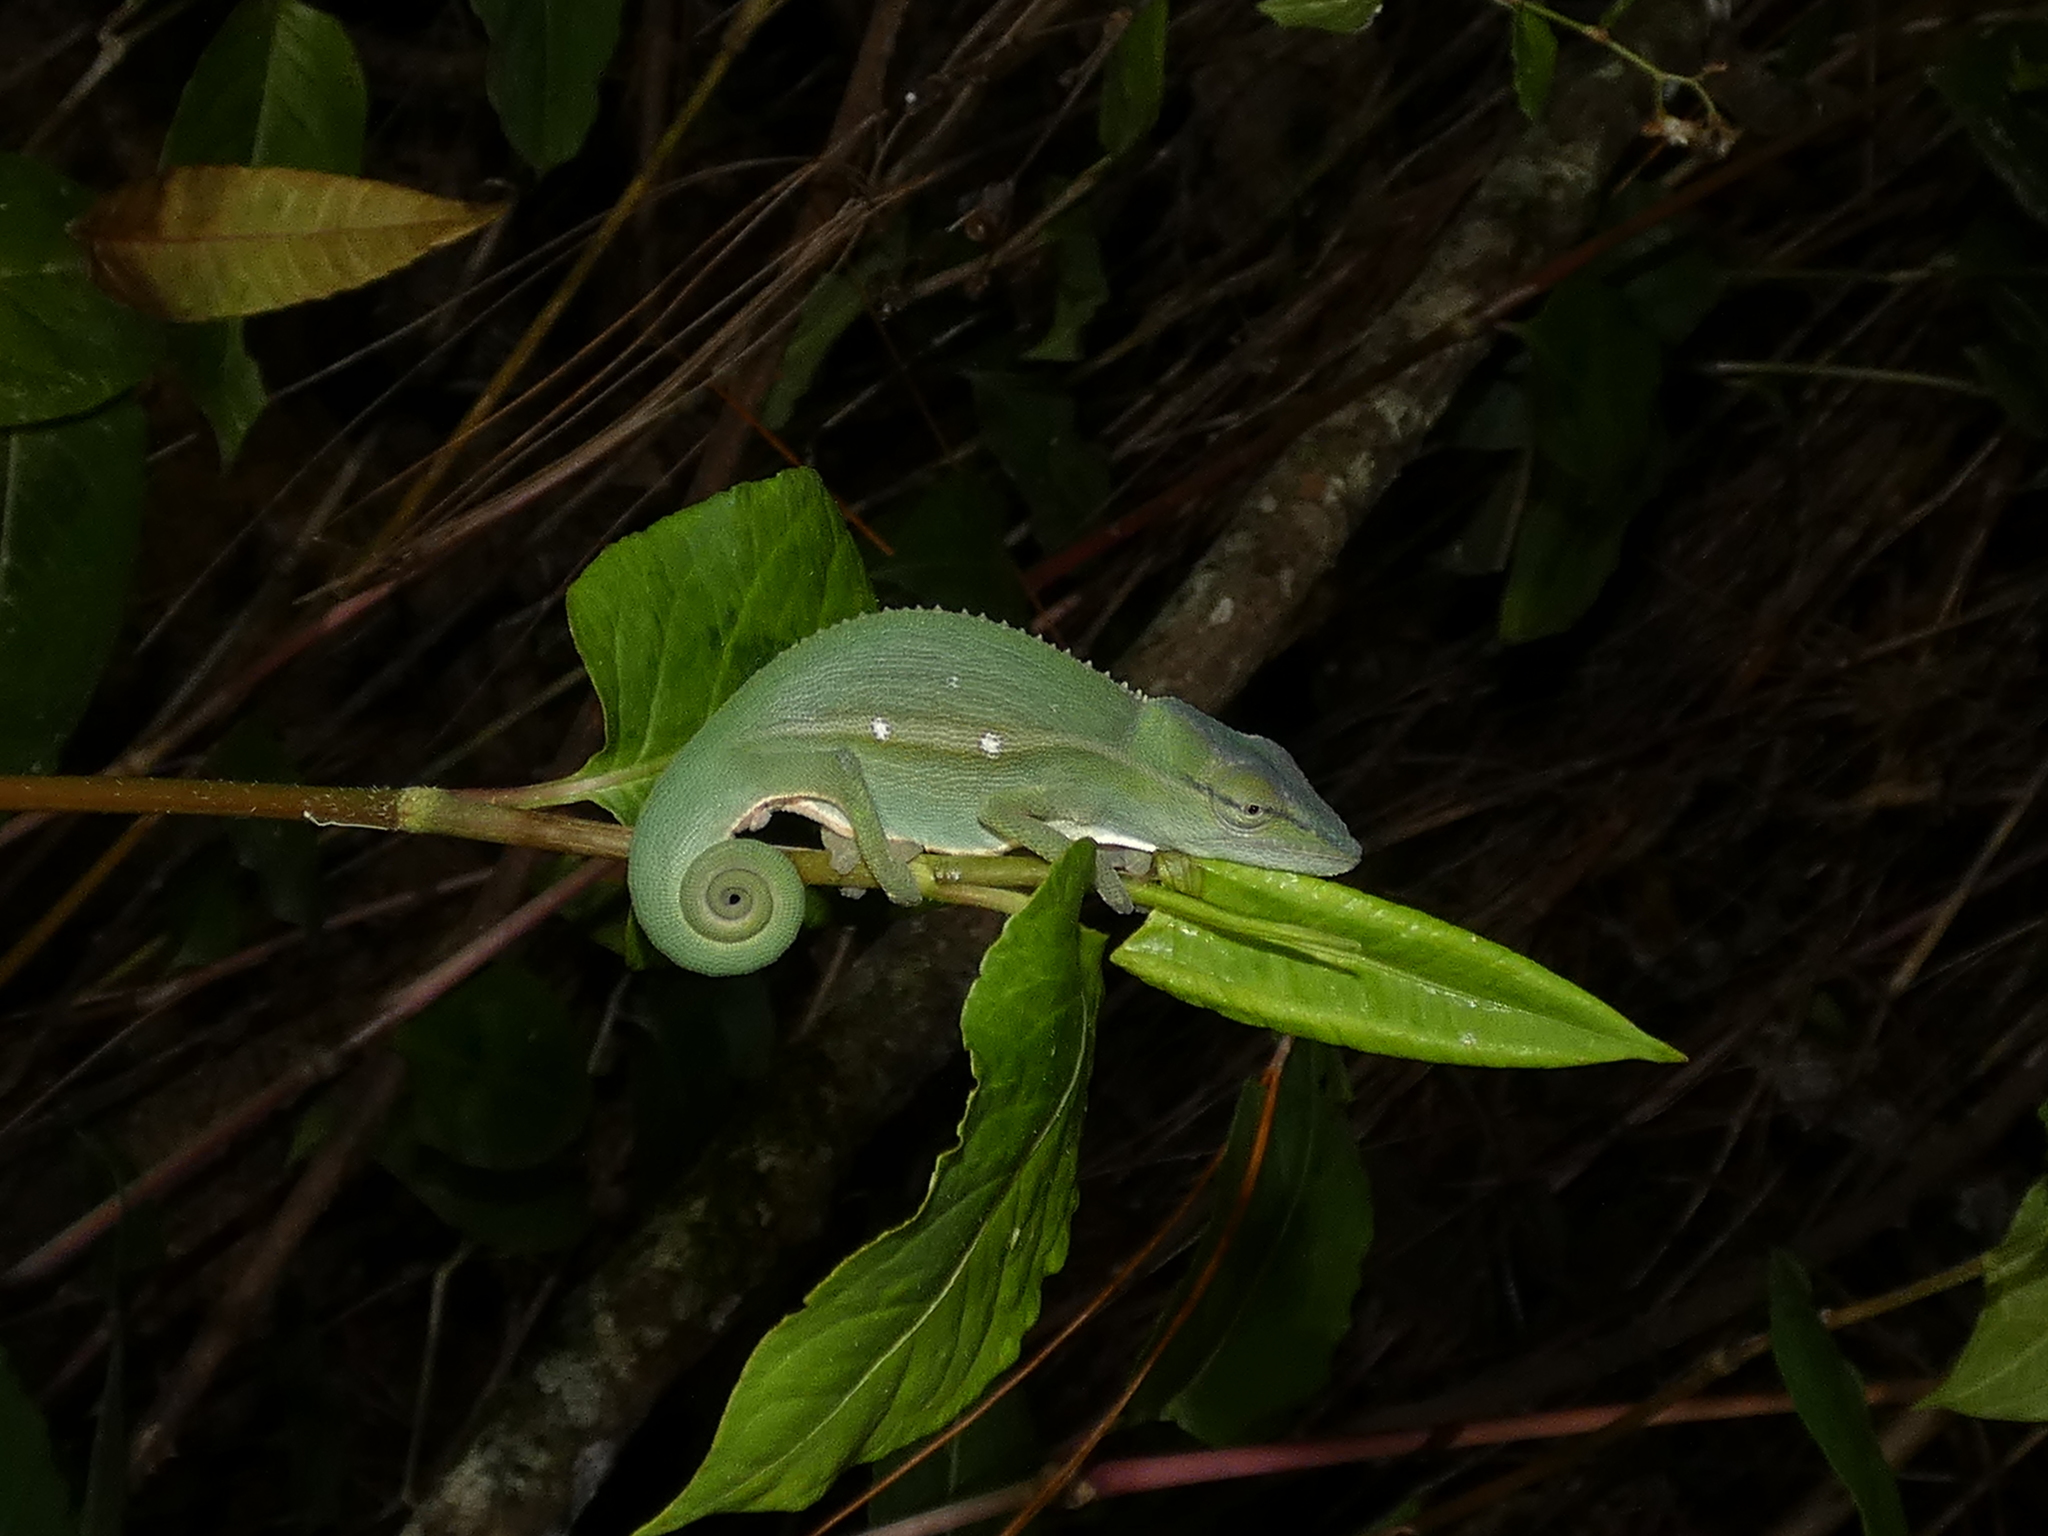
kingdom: Animalia
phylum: Chordata
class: Squamata
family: Chamaeleonidae
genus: Calumma
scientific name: Calumma gastrotaenia
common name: Short-nosed chameleon
